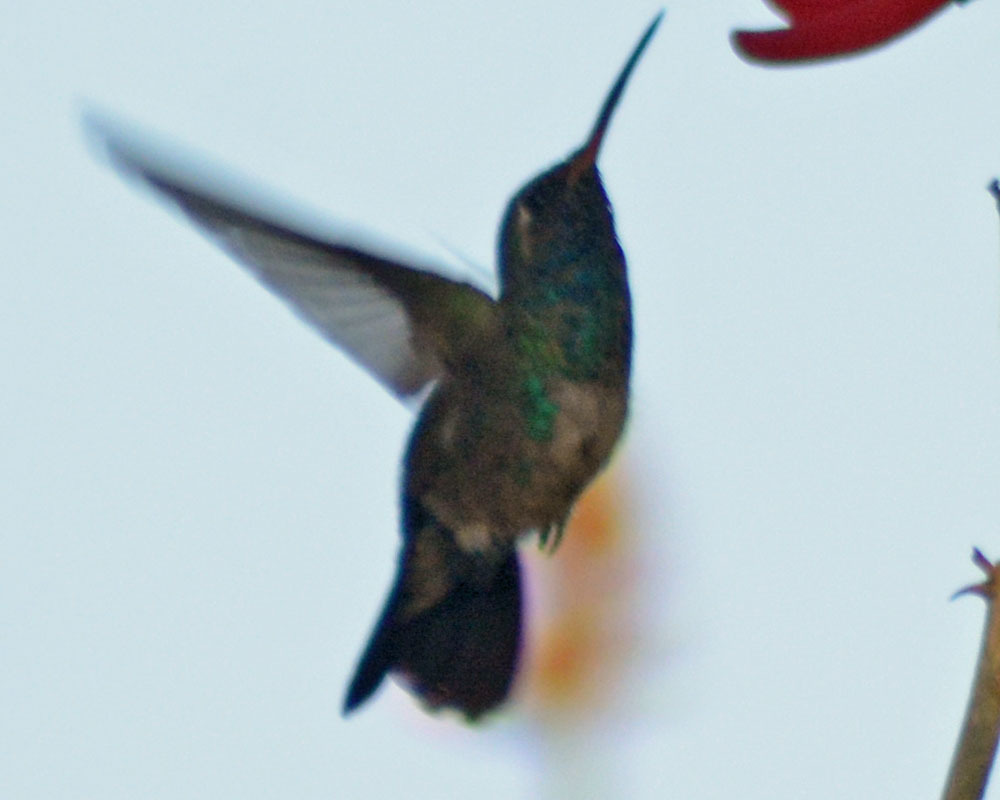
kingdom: Animalia
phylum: Chordata
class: Aves
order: Apodiformes
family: Trochilidae
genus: Cynanthus
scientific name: Cynanthus latirostris
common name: Broad-billed hummingbird
